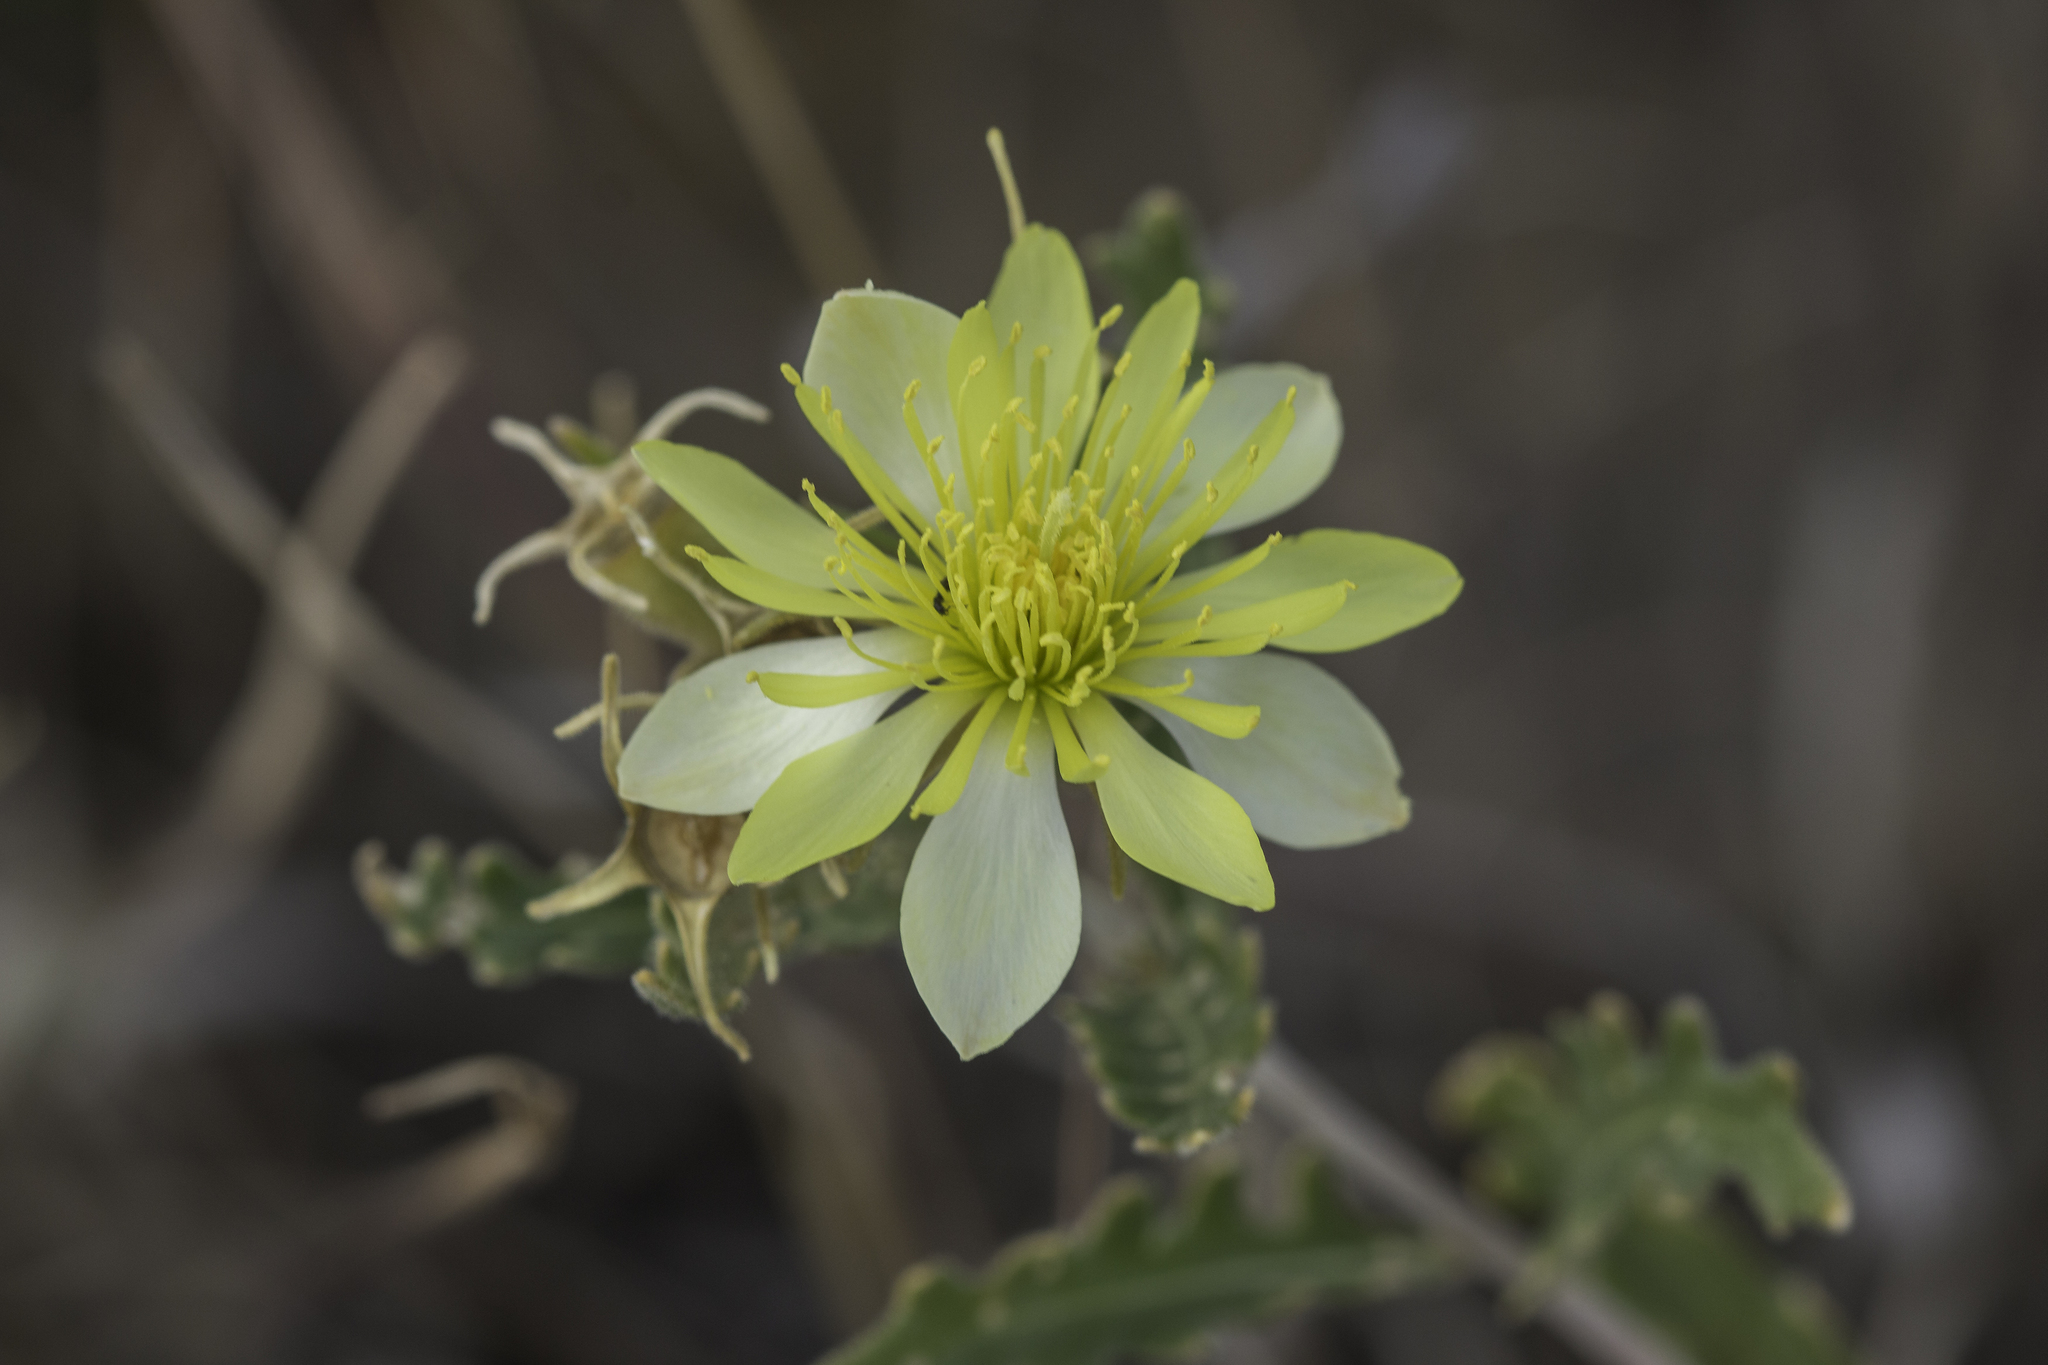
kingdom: Plantae
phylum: Tracheophyta
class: Magnoliopsida
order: Cornales
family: Loasaceae
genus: Mentzelia
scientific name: Mentzelia multiflora
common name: Adonis blazingstar
